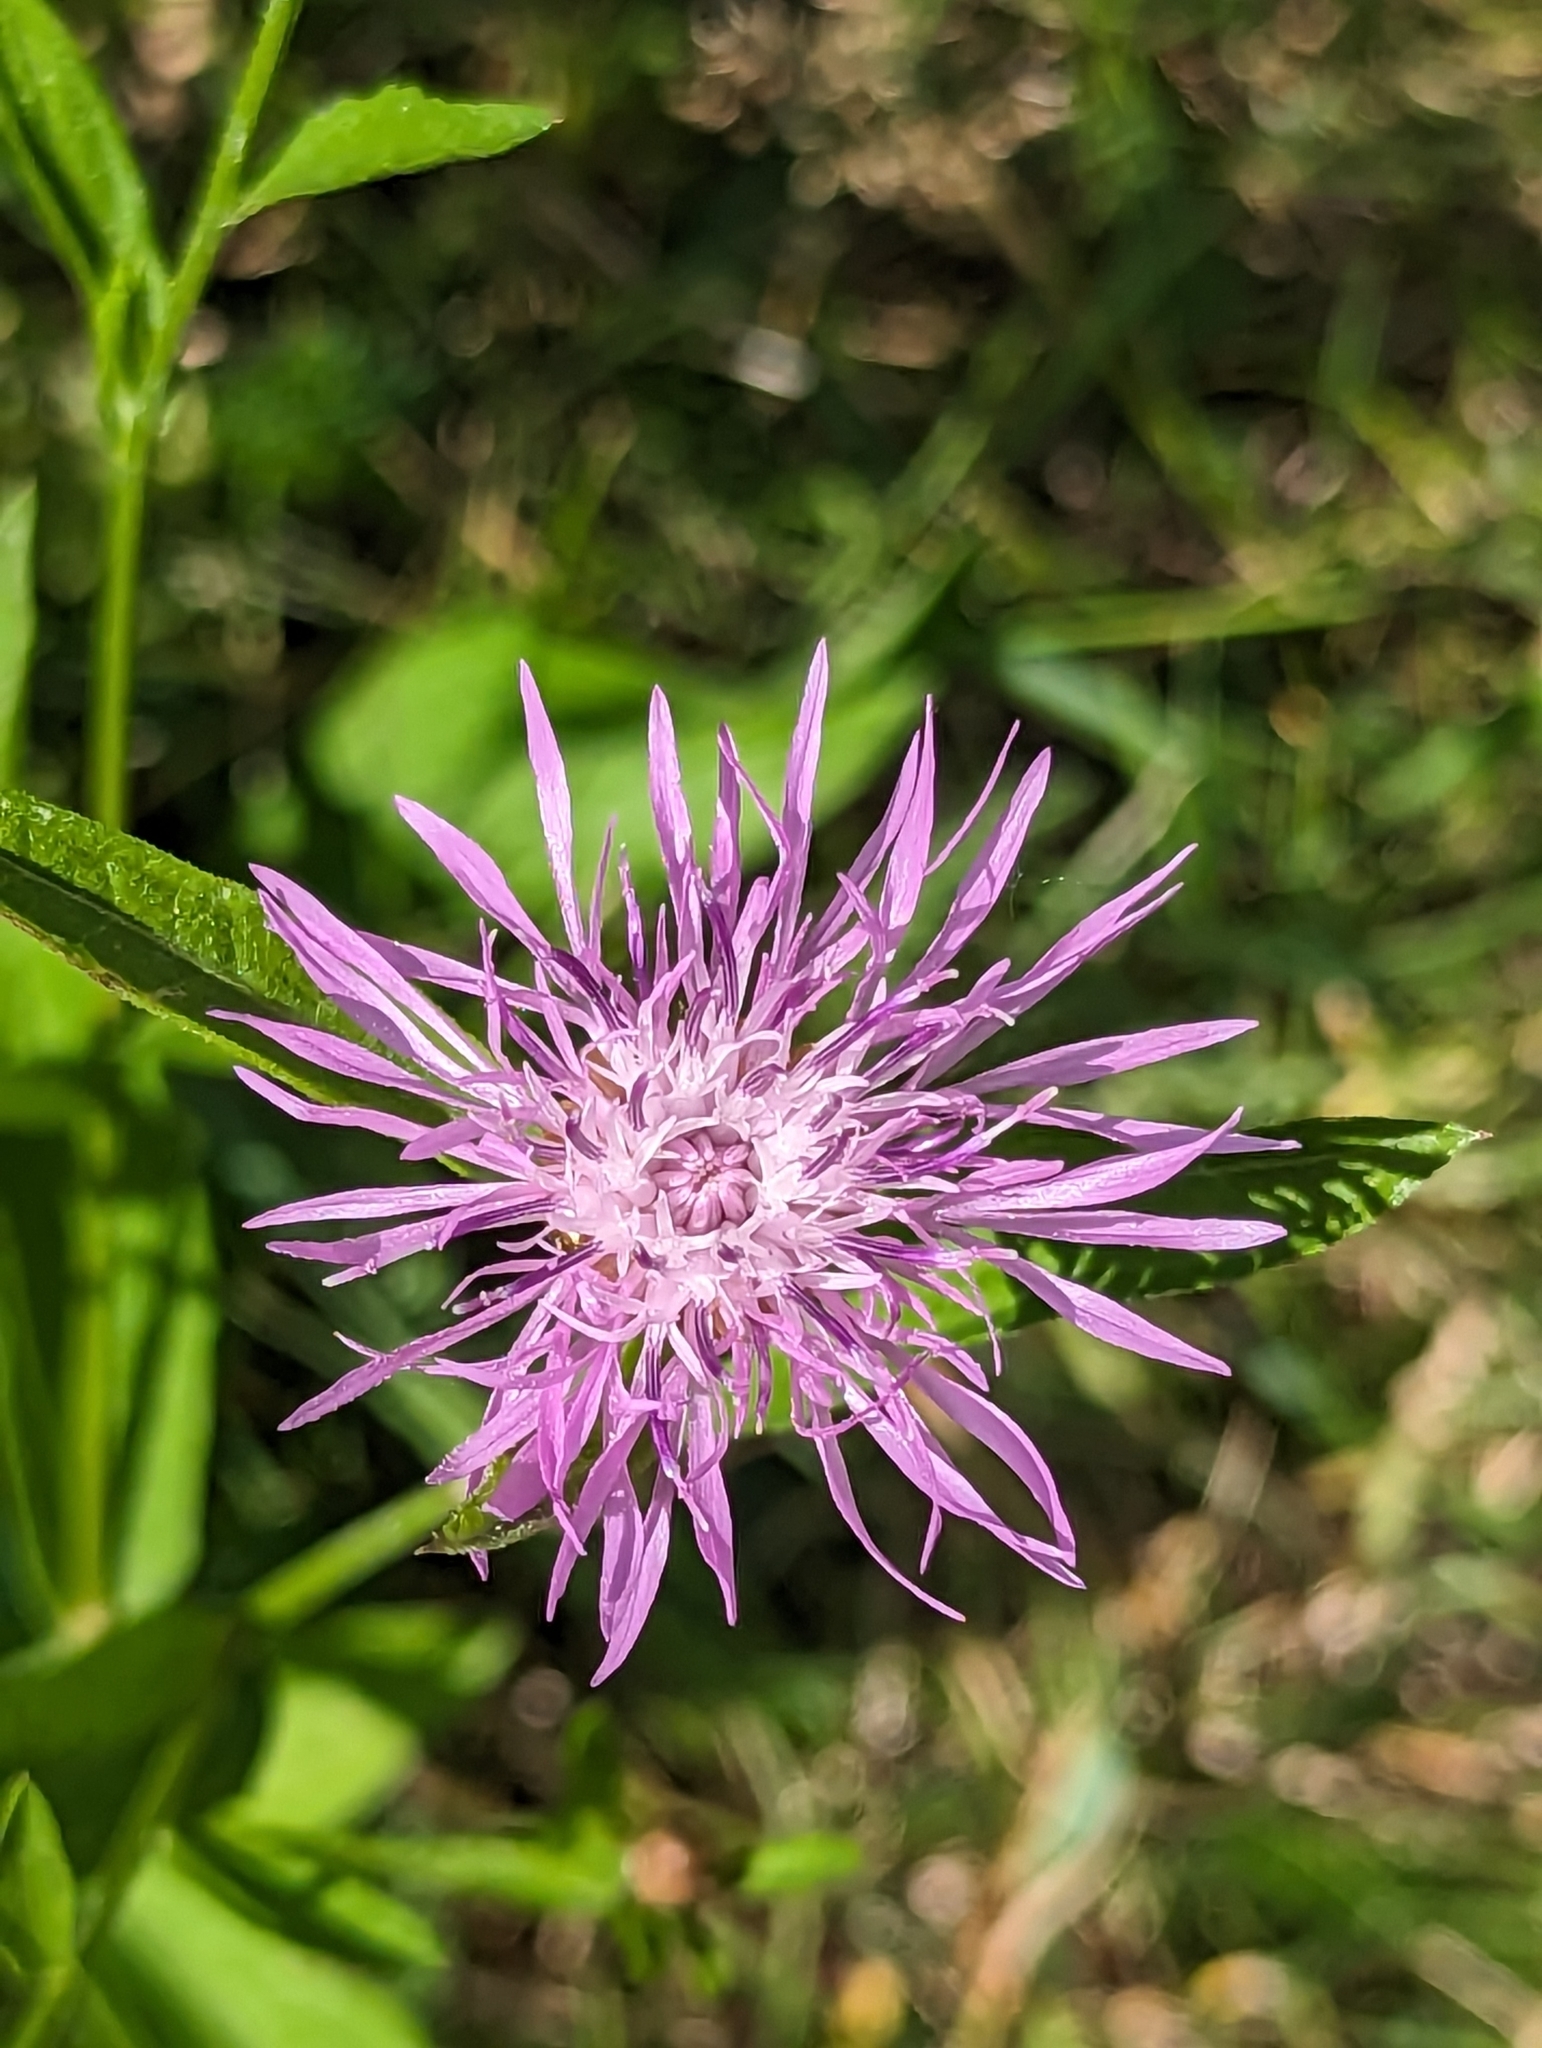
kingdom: Plantae
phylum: Tracheophyta
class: Magnoliopsida
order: Asterales
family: Asteraceae
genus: Centaurea
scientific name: Centaurea jacea
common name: Brown knapweed
